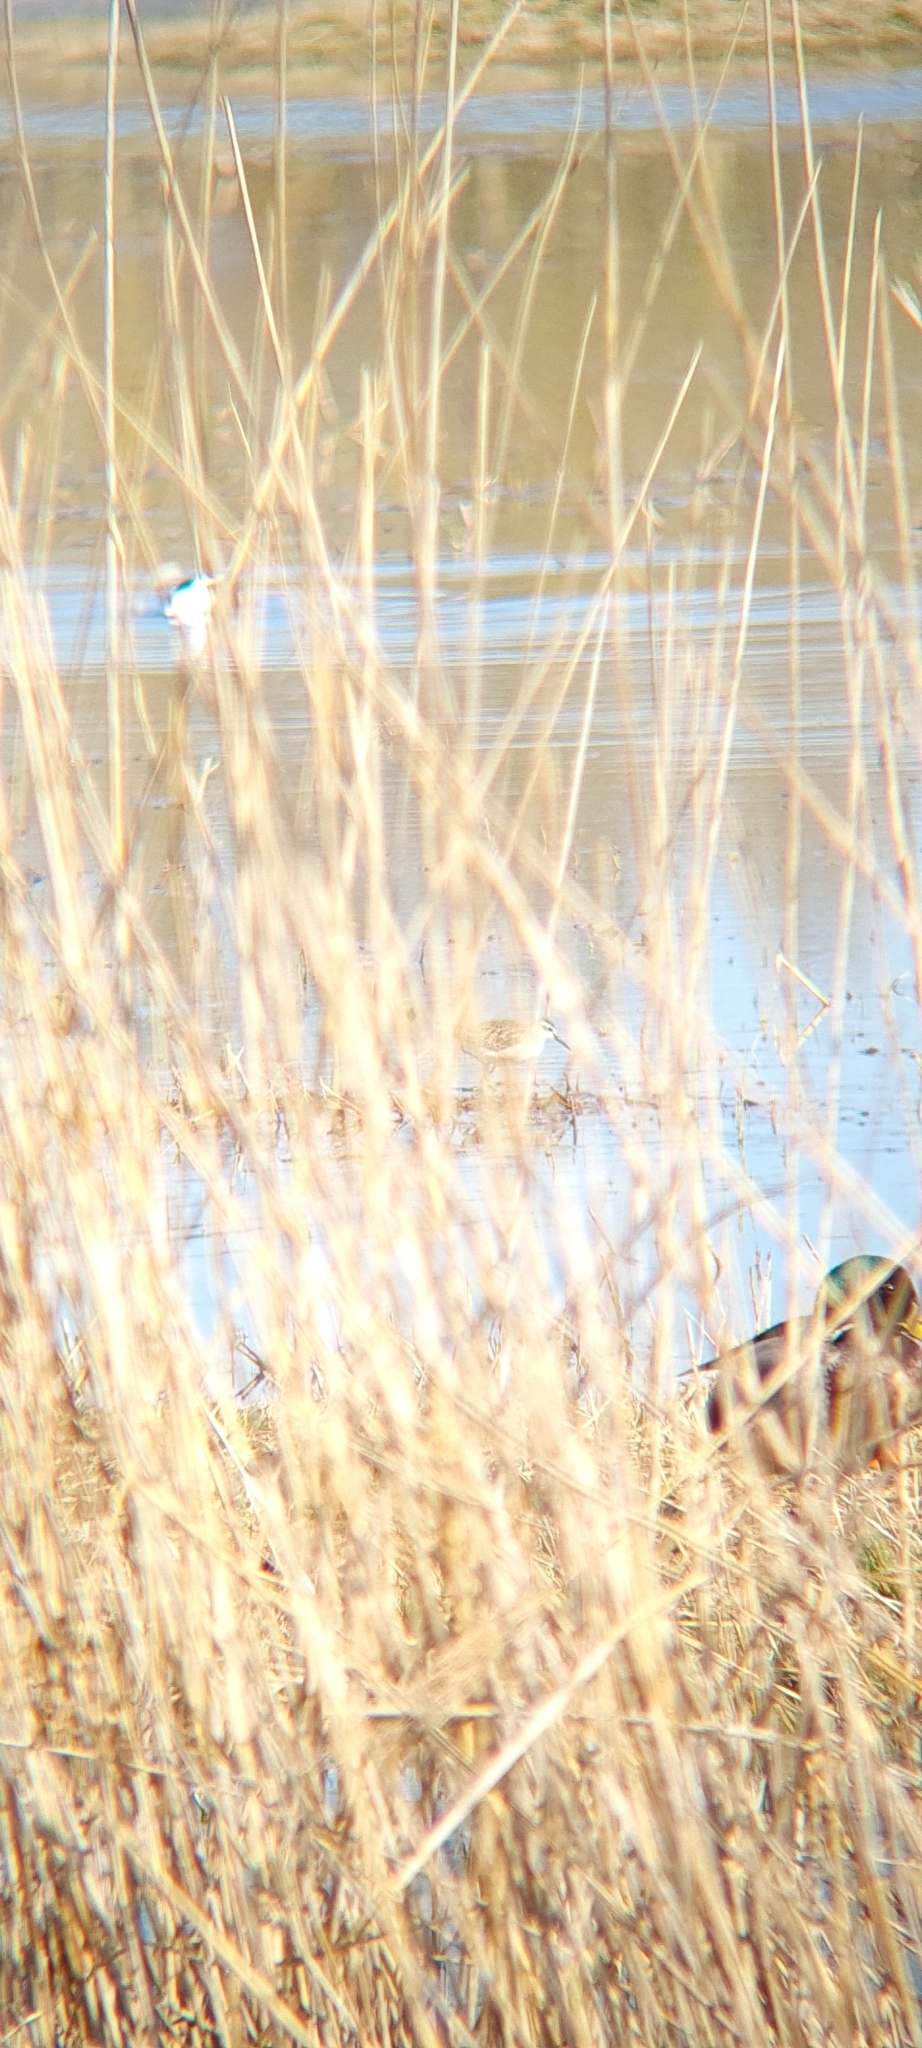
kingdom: Animalia
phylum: Chordata
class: Aves
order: Charadriiformes
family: Scolopacidae
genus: Tringa
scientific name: Tringa glareola
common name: Wood sandpiper
